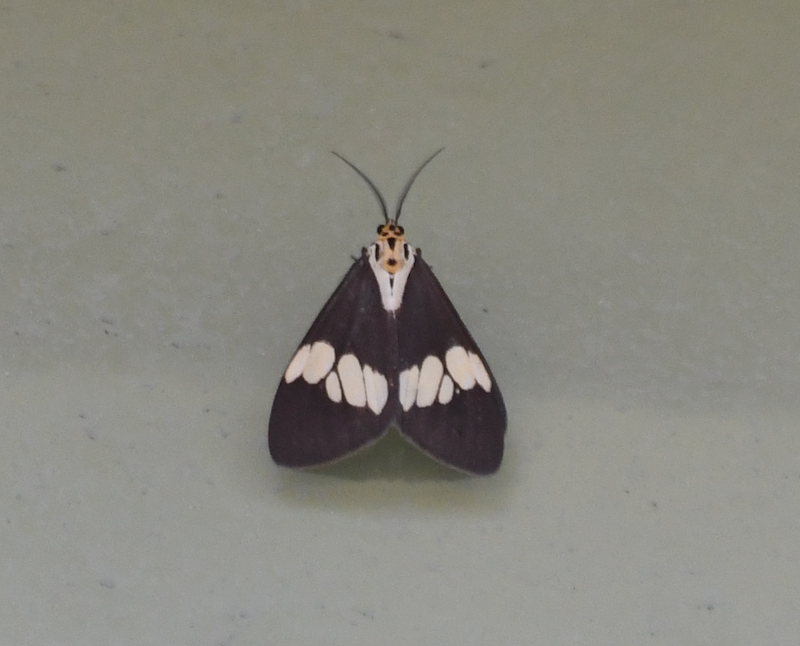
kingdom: Animalia
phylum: Arthropoda
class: Insecta
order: Lepidoptera
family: Erebidae
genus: Nyctemera
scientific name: Nyctemera lacticinia
